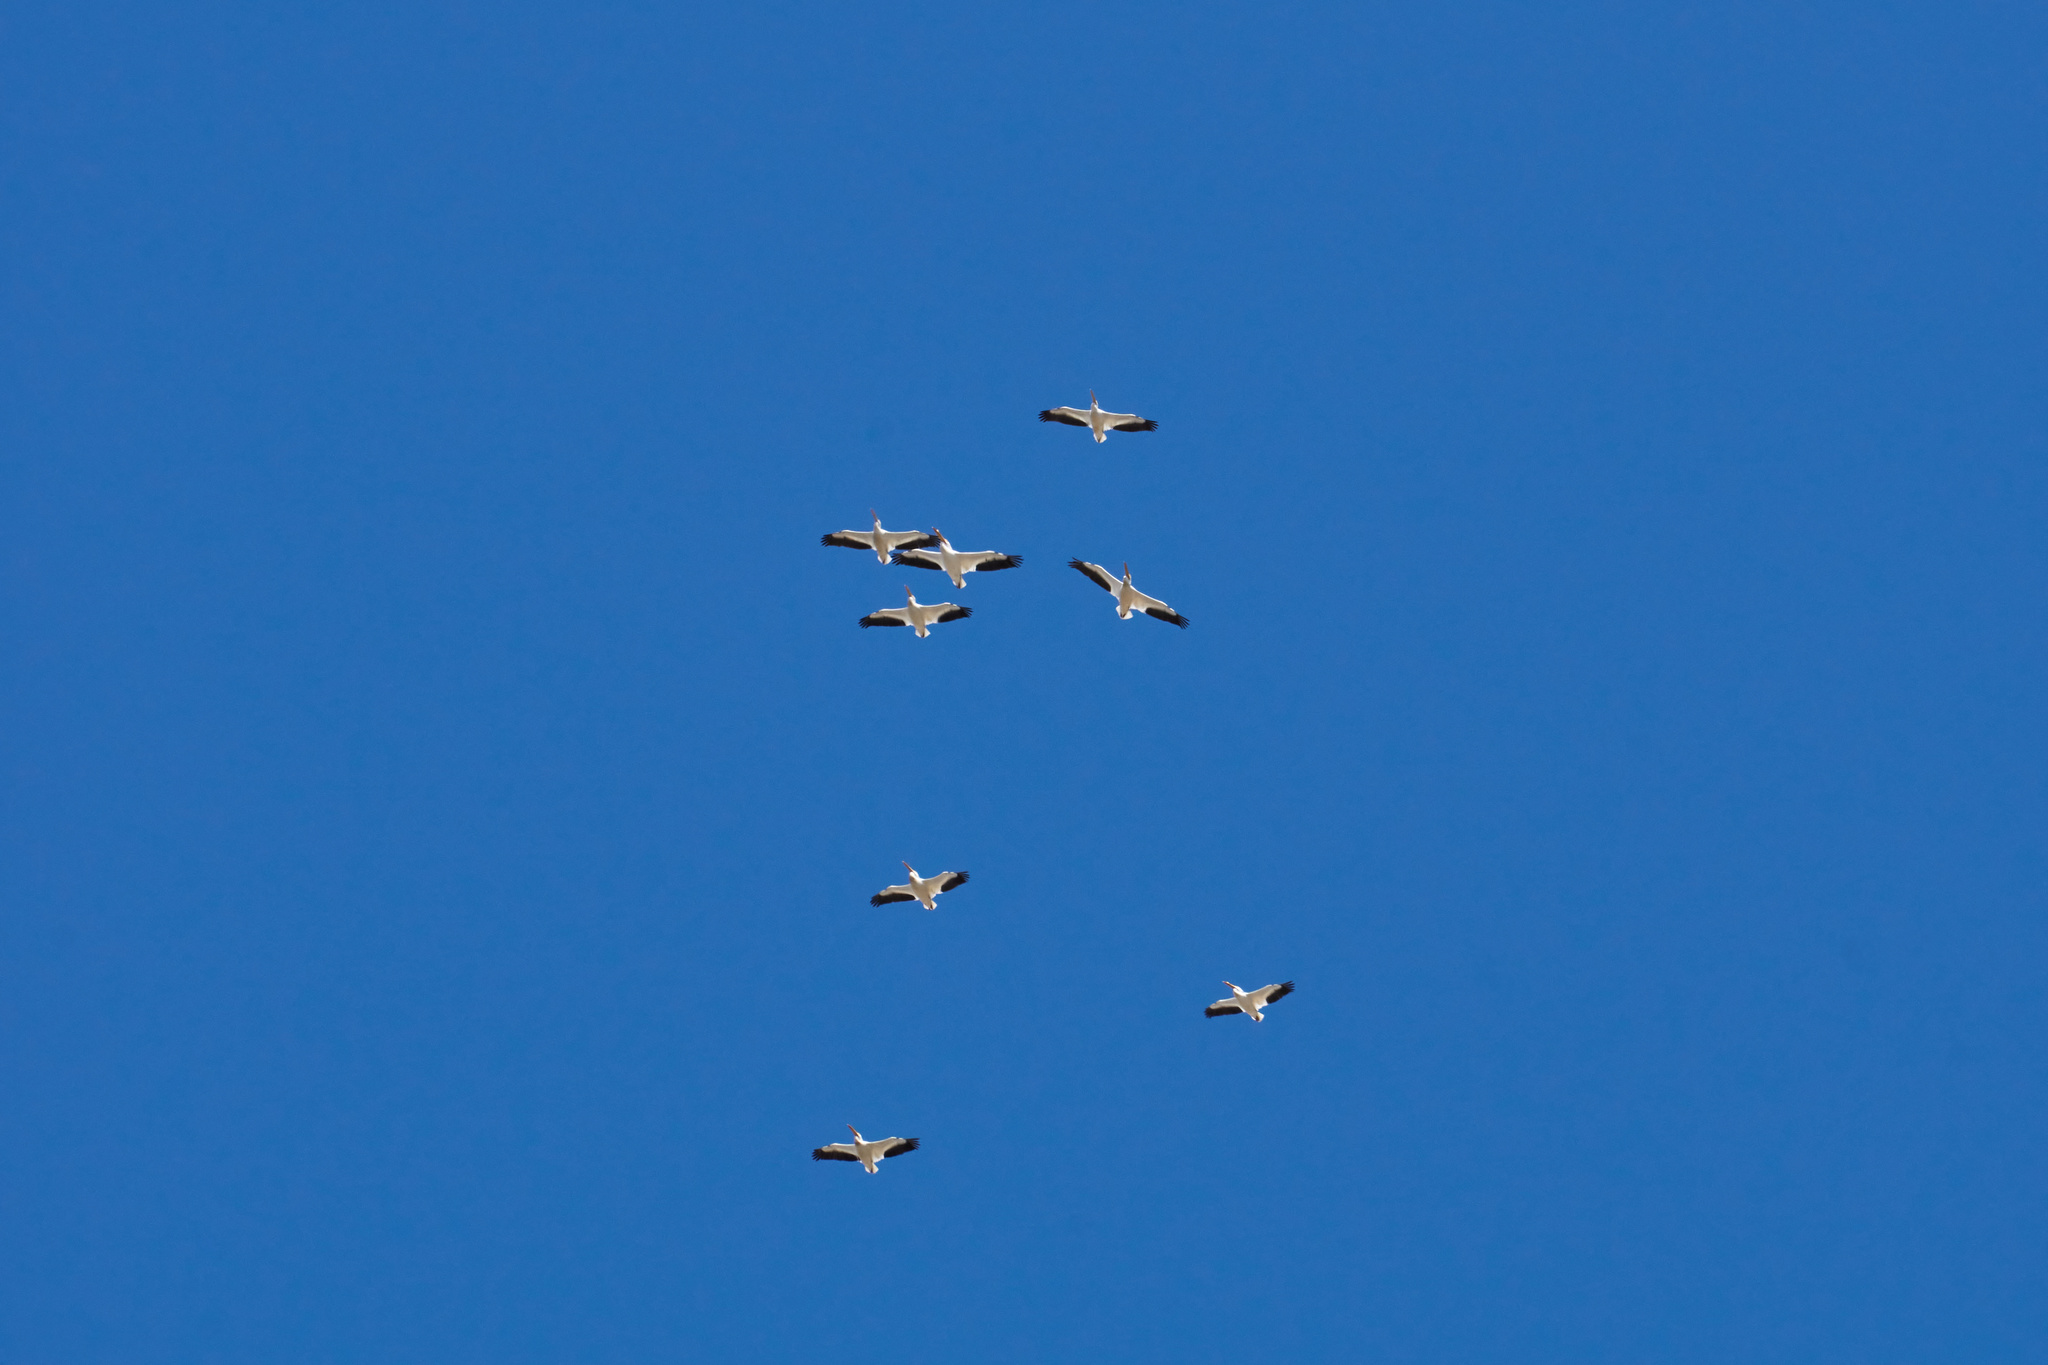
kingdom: Animalia
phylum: Chordata
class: Aves
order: Pelecaniformes
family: Pelecanidae
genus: Pelecanus
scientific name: Pelecanus erythrorhynchos
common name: American white pelican
